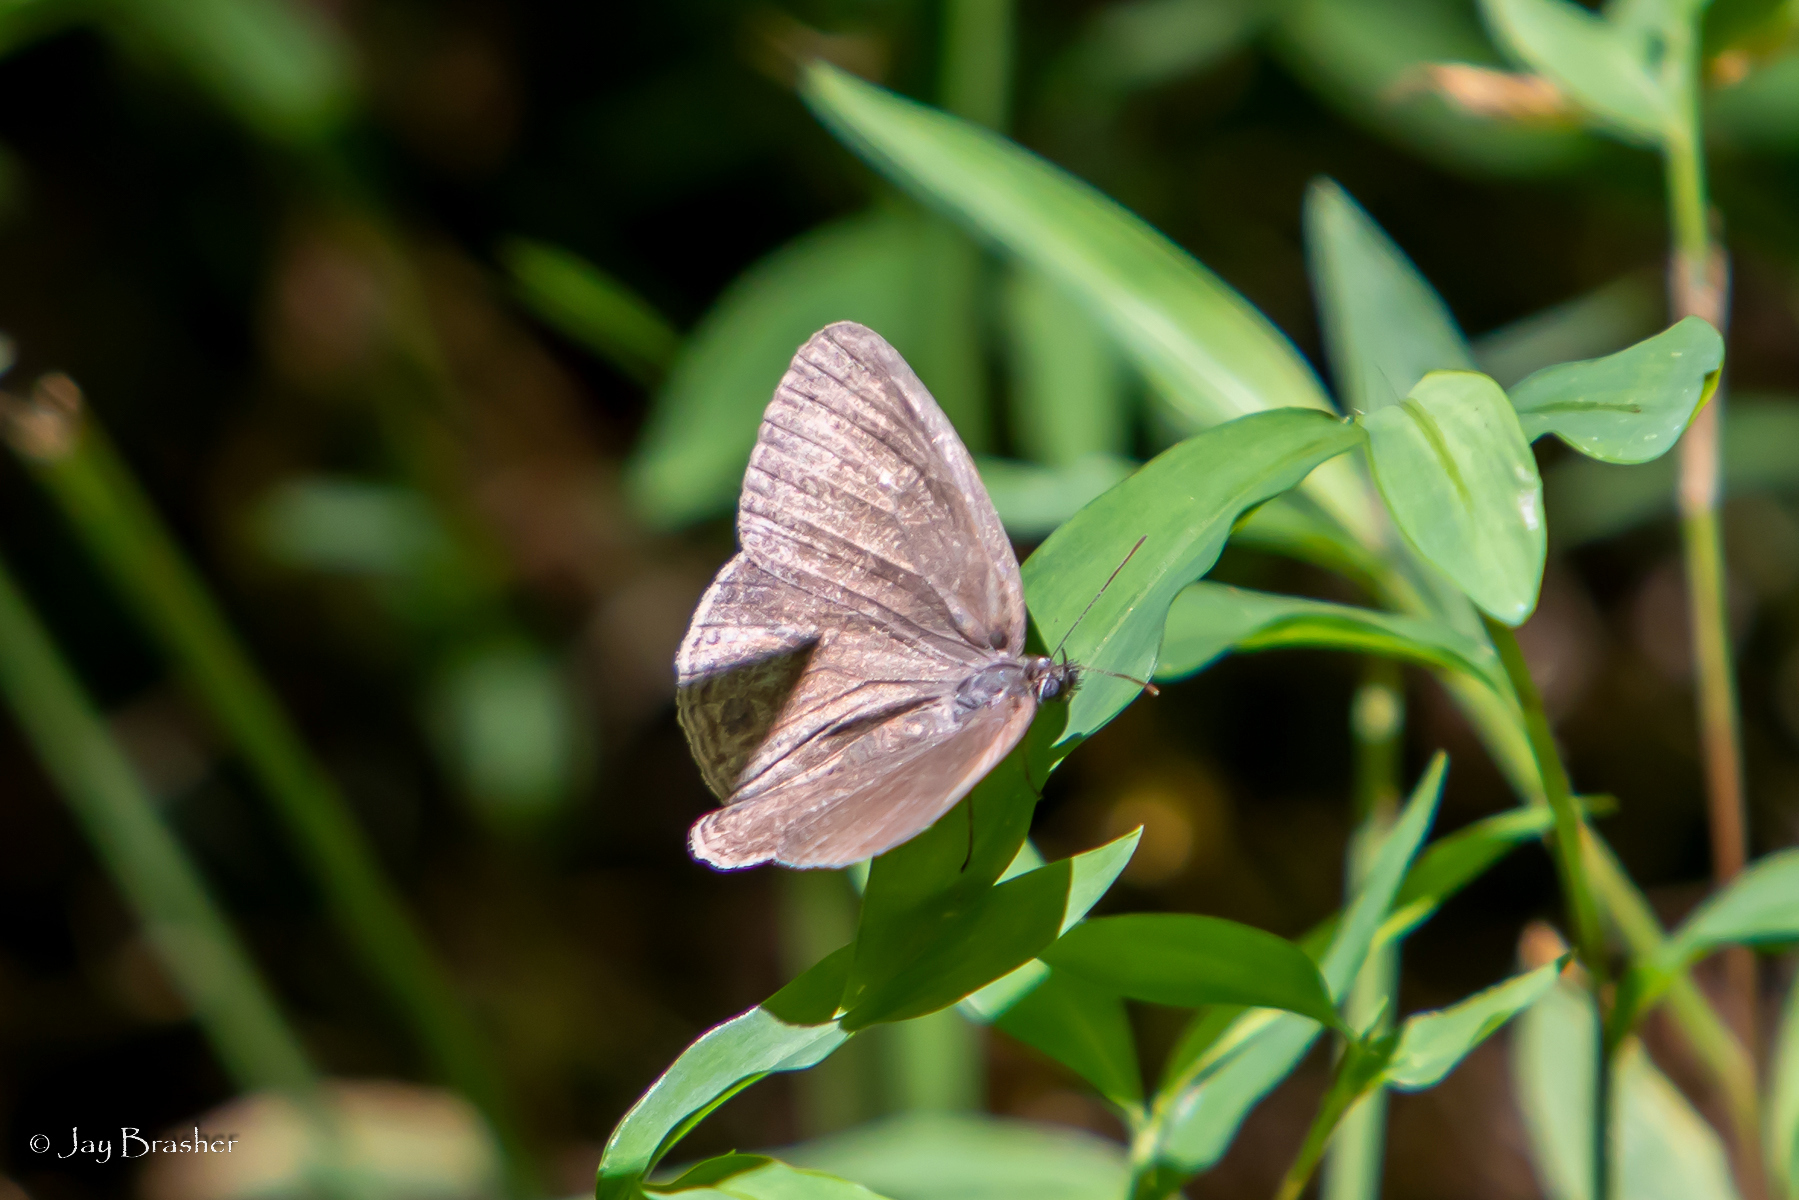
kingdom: Animalia
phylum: Arthropoda
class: Insecta
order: Lepidoptera
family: Nymphalidae
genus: Hermeuptychia
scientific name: Hermeuptychia hermes
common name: Hermes satyr
